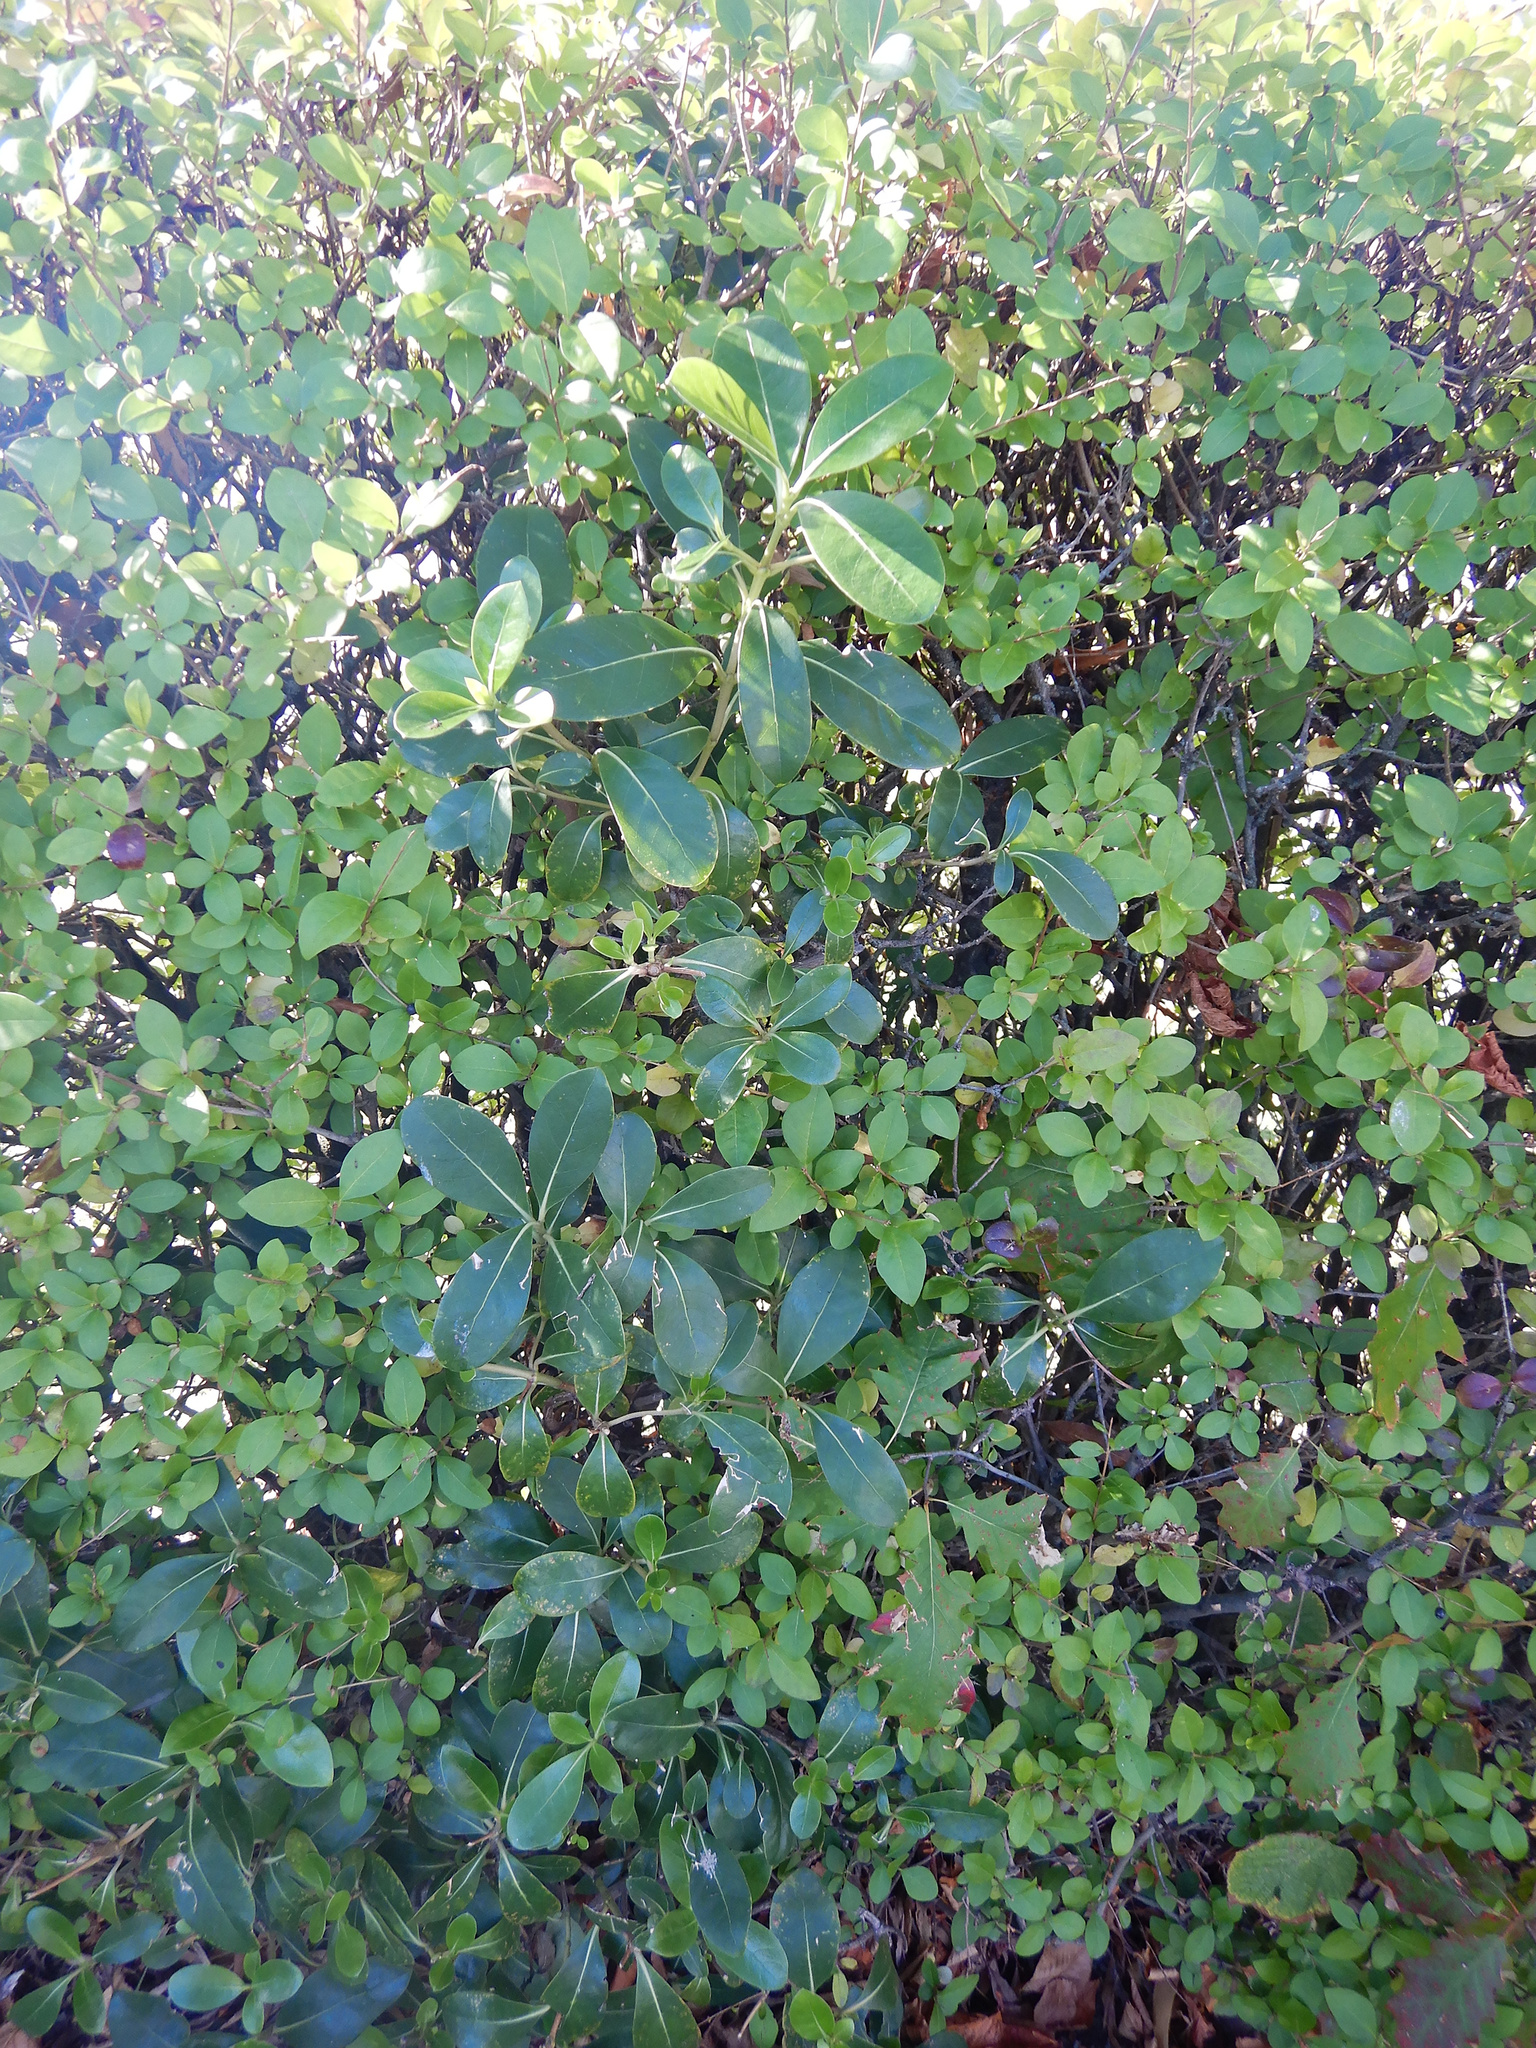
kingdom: Plantae
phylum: Tracheophyta
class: Magnoliopsida
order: Apiales
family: Pittosporaceae
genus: Pittosporum
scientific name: Pittosporum crassifolium
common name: Karo
